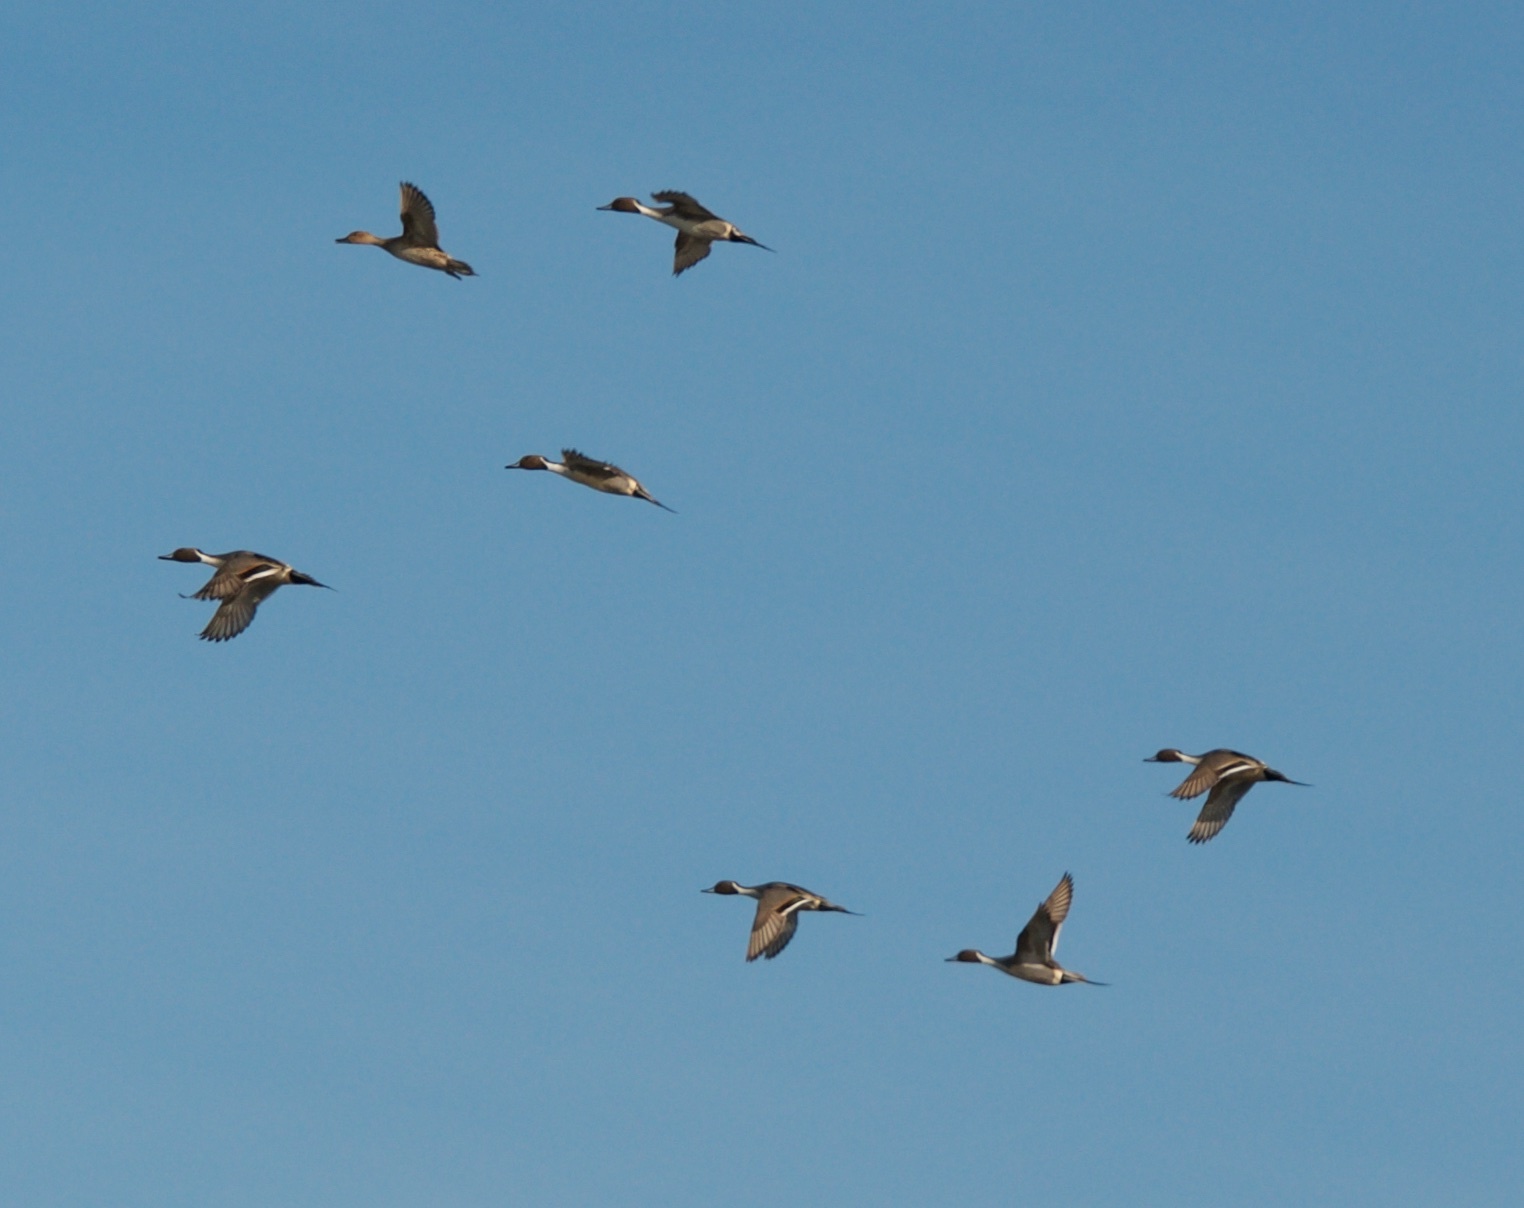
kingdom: Animalia
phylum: Chordata
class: Aves
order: Anseriformes
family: Anatidae
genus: Anas
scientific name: Anas acuta
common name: Northern pintail
